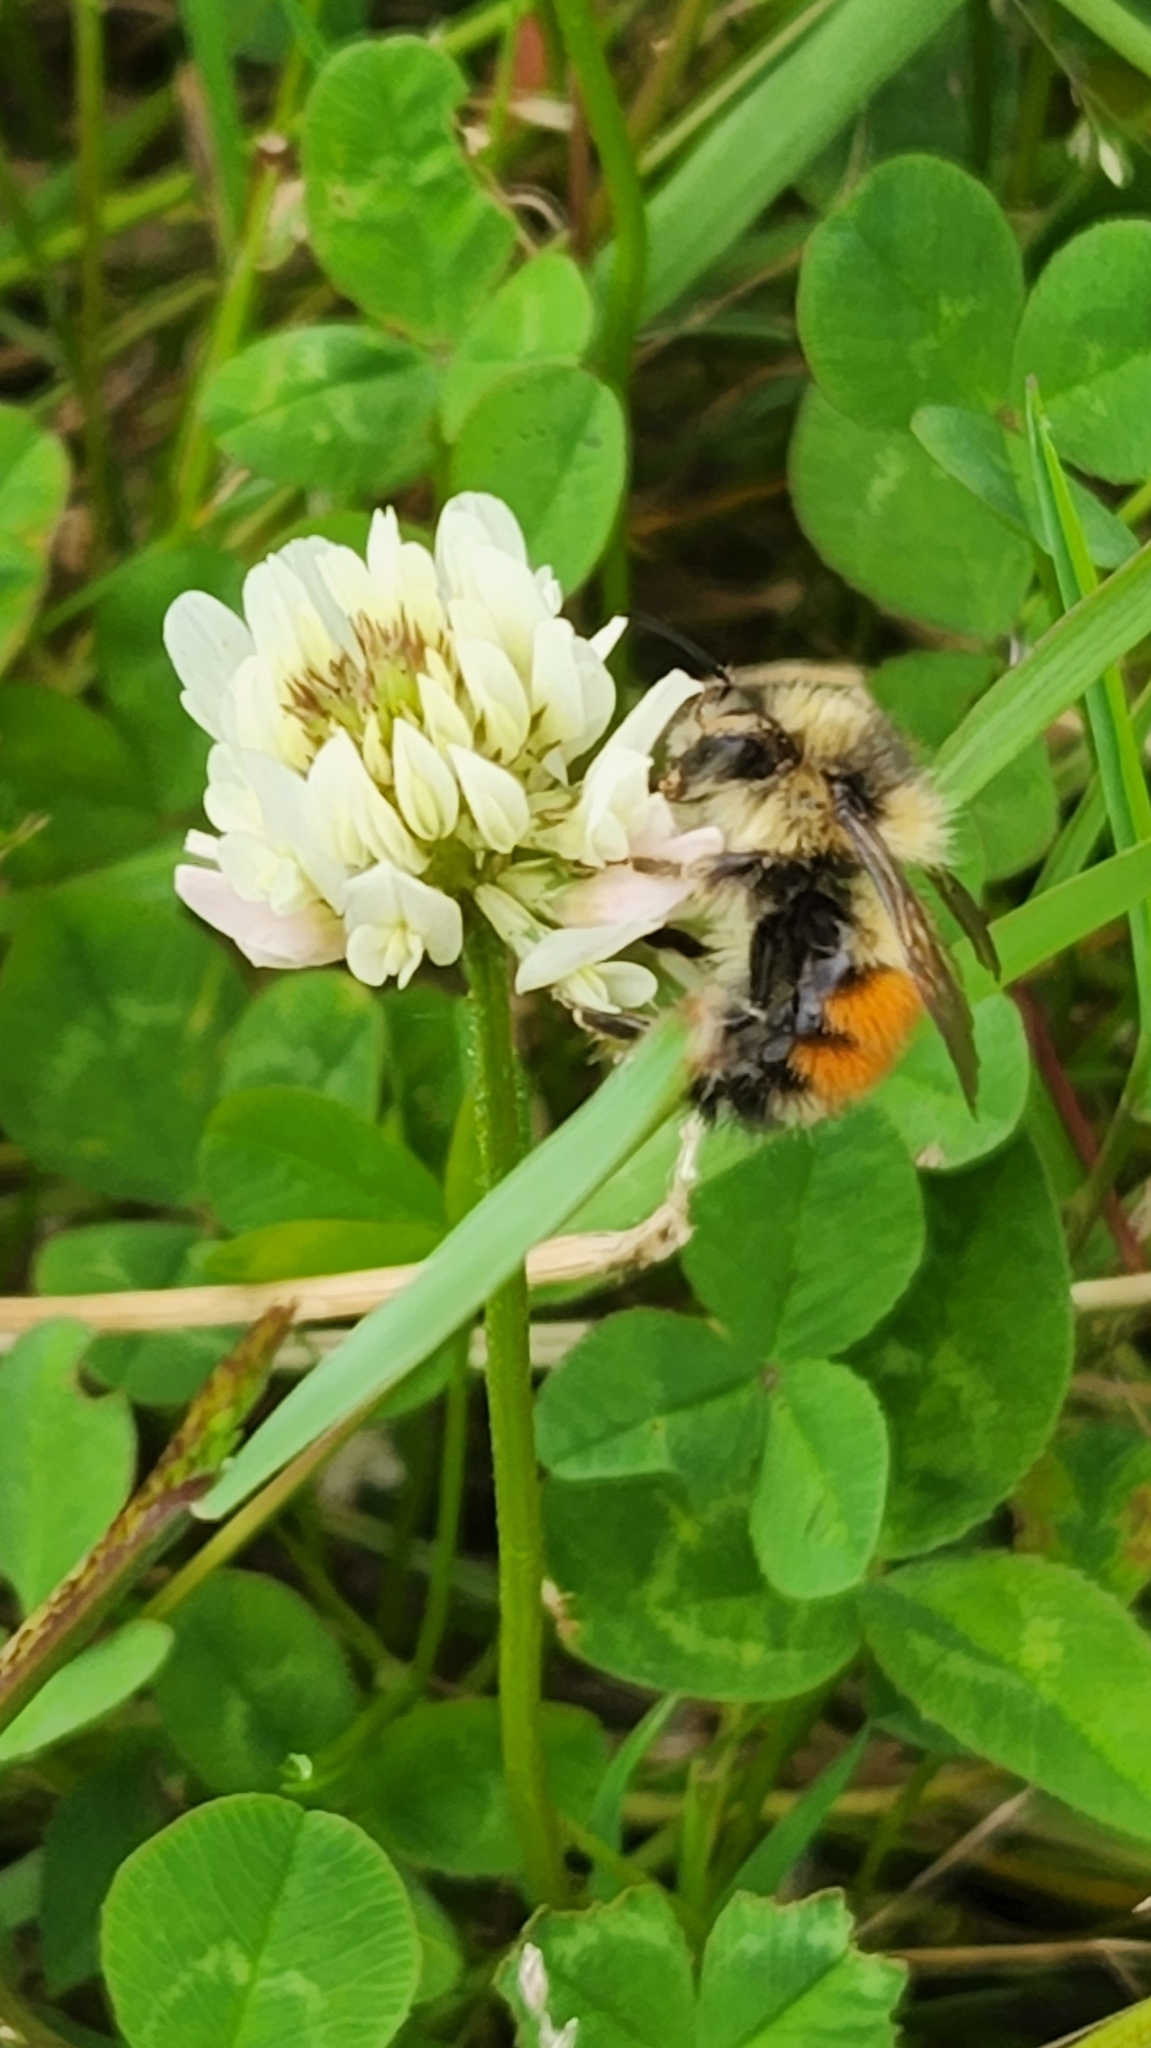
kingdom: Animalia
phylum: Arthropoda
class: Insecta
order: Hymenoptera
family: Apidae
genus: Bombus
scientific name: Bombus melanopygus
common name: Black tail bumble bee
